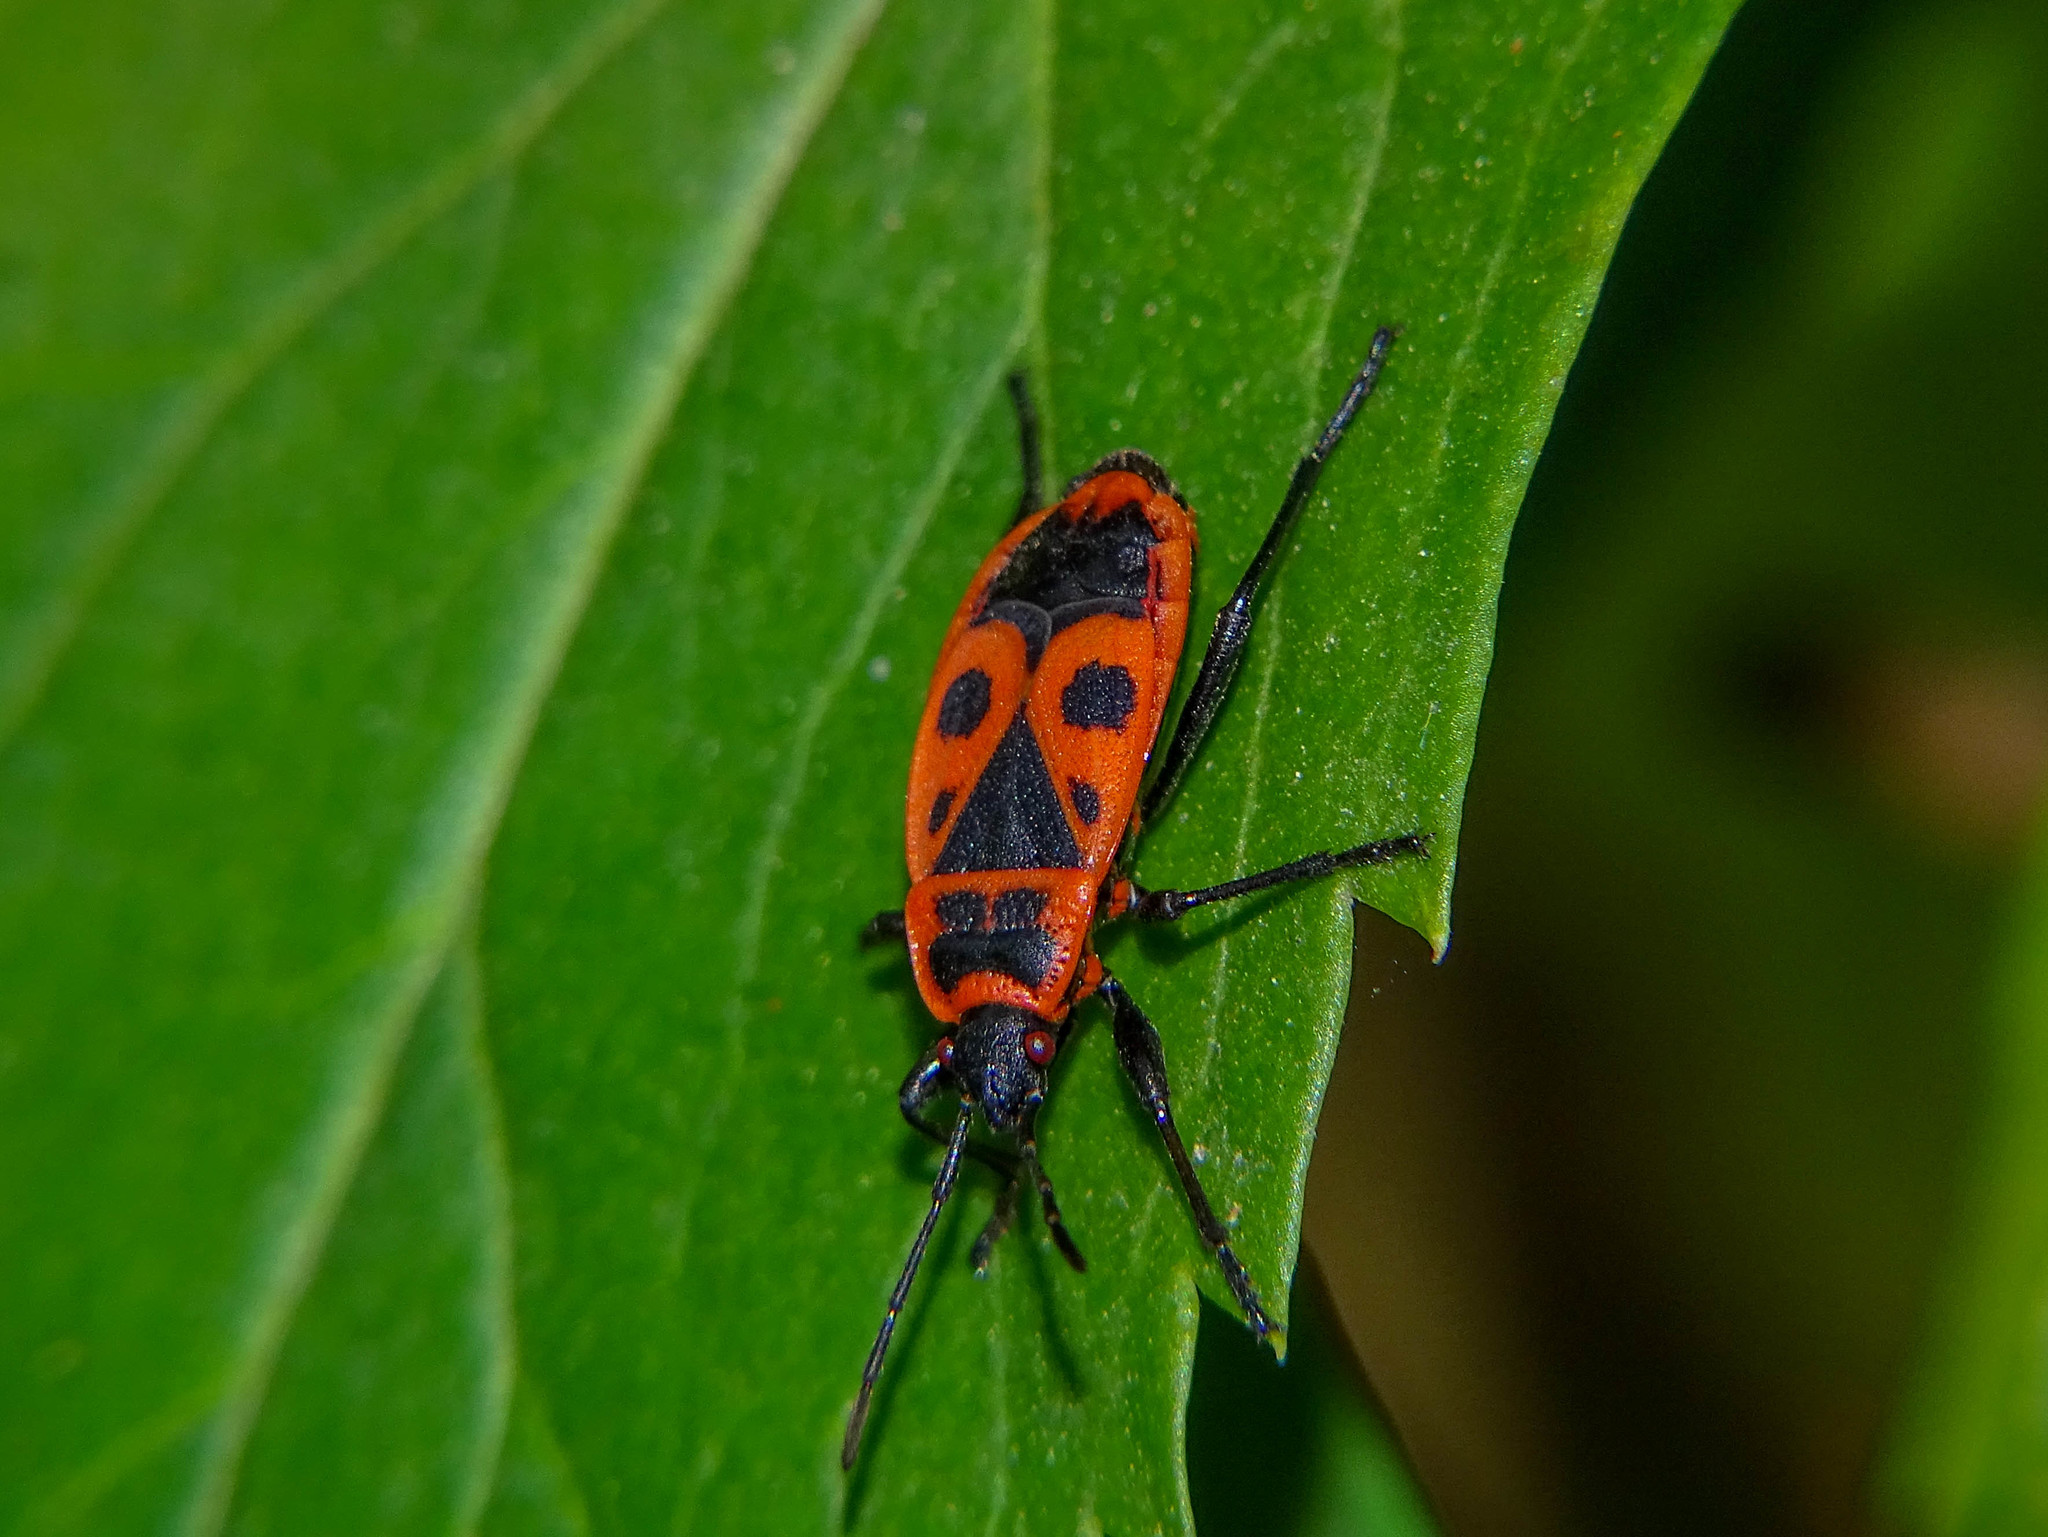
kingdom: Animalia
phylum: Arthropoda
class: Insecta
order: Hemiptera
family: Pyrrhocoridae
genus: Pyrrhocoris
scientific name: Pyrrhocoris apterus
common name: Firebug
